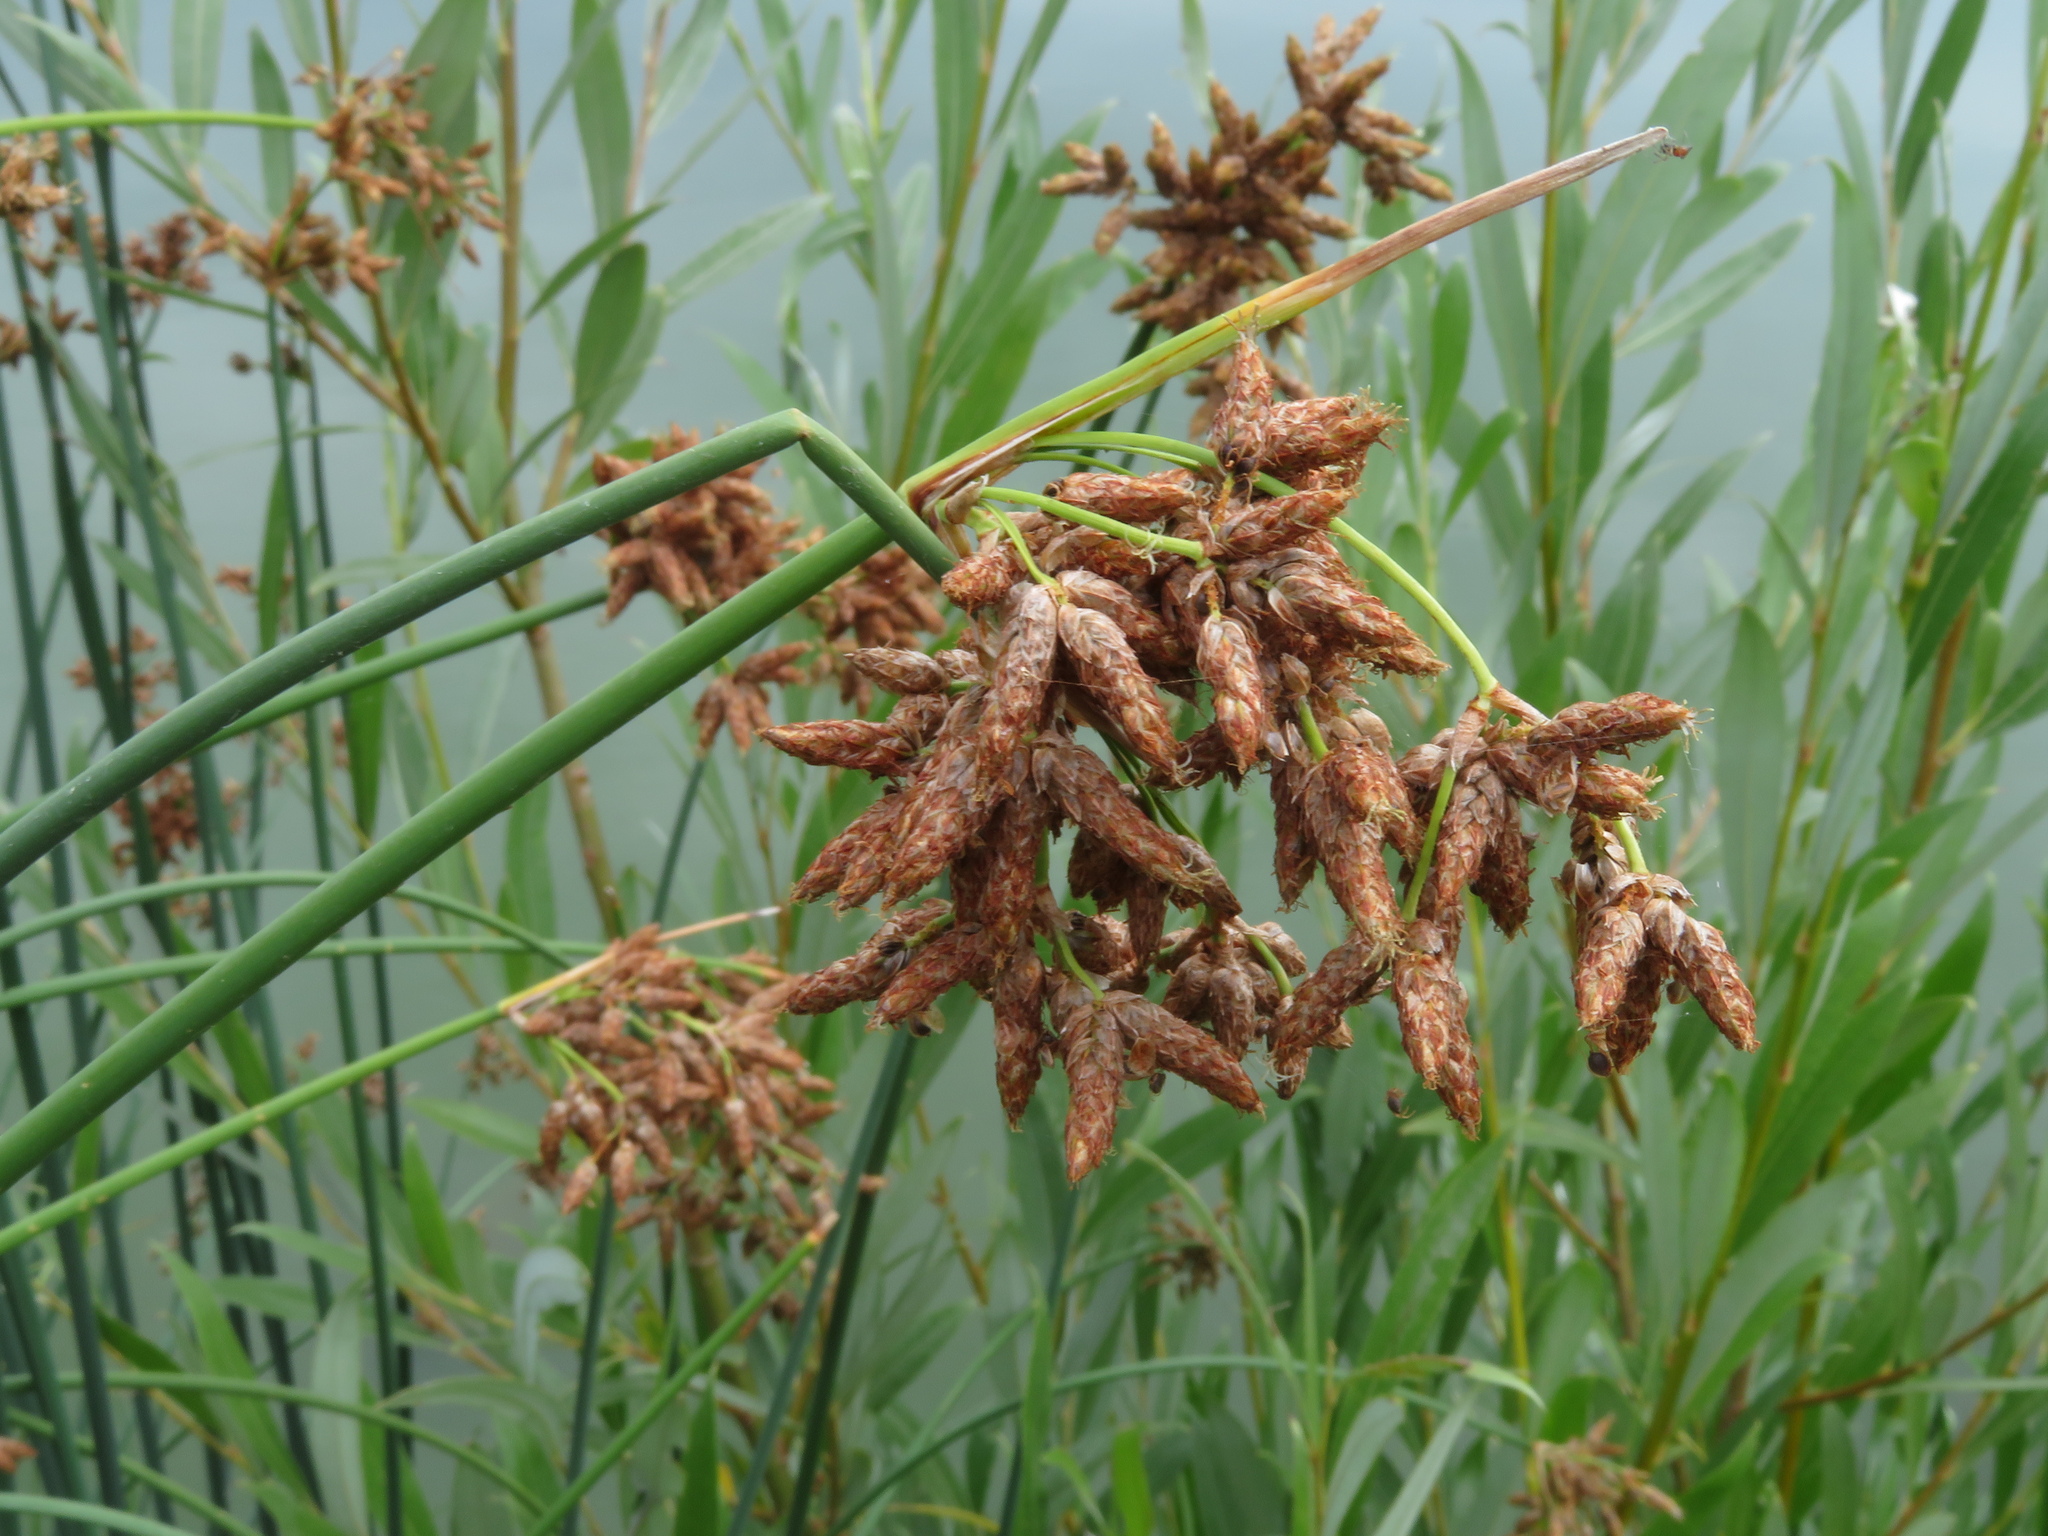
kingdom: Plantae
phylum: Tracheophyta
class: Liliopsida
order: Poales
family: Cyperaceae
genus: Schoenoplectus
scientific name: Schoenoplectus tabernaemontani
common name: Grey club-rush
